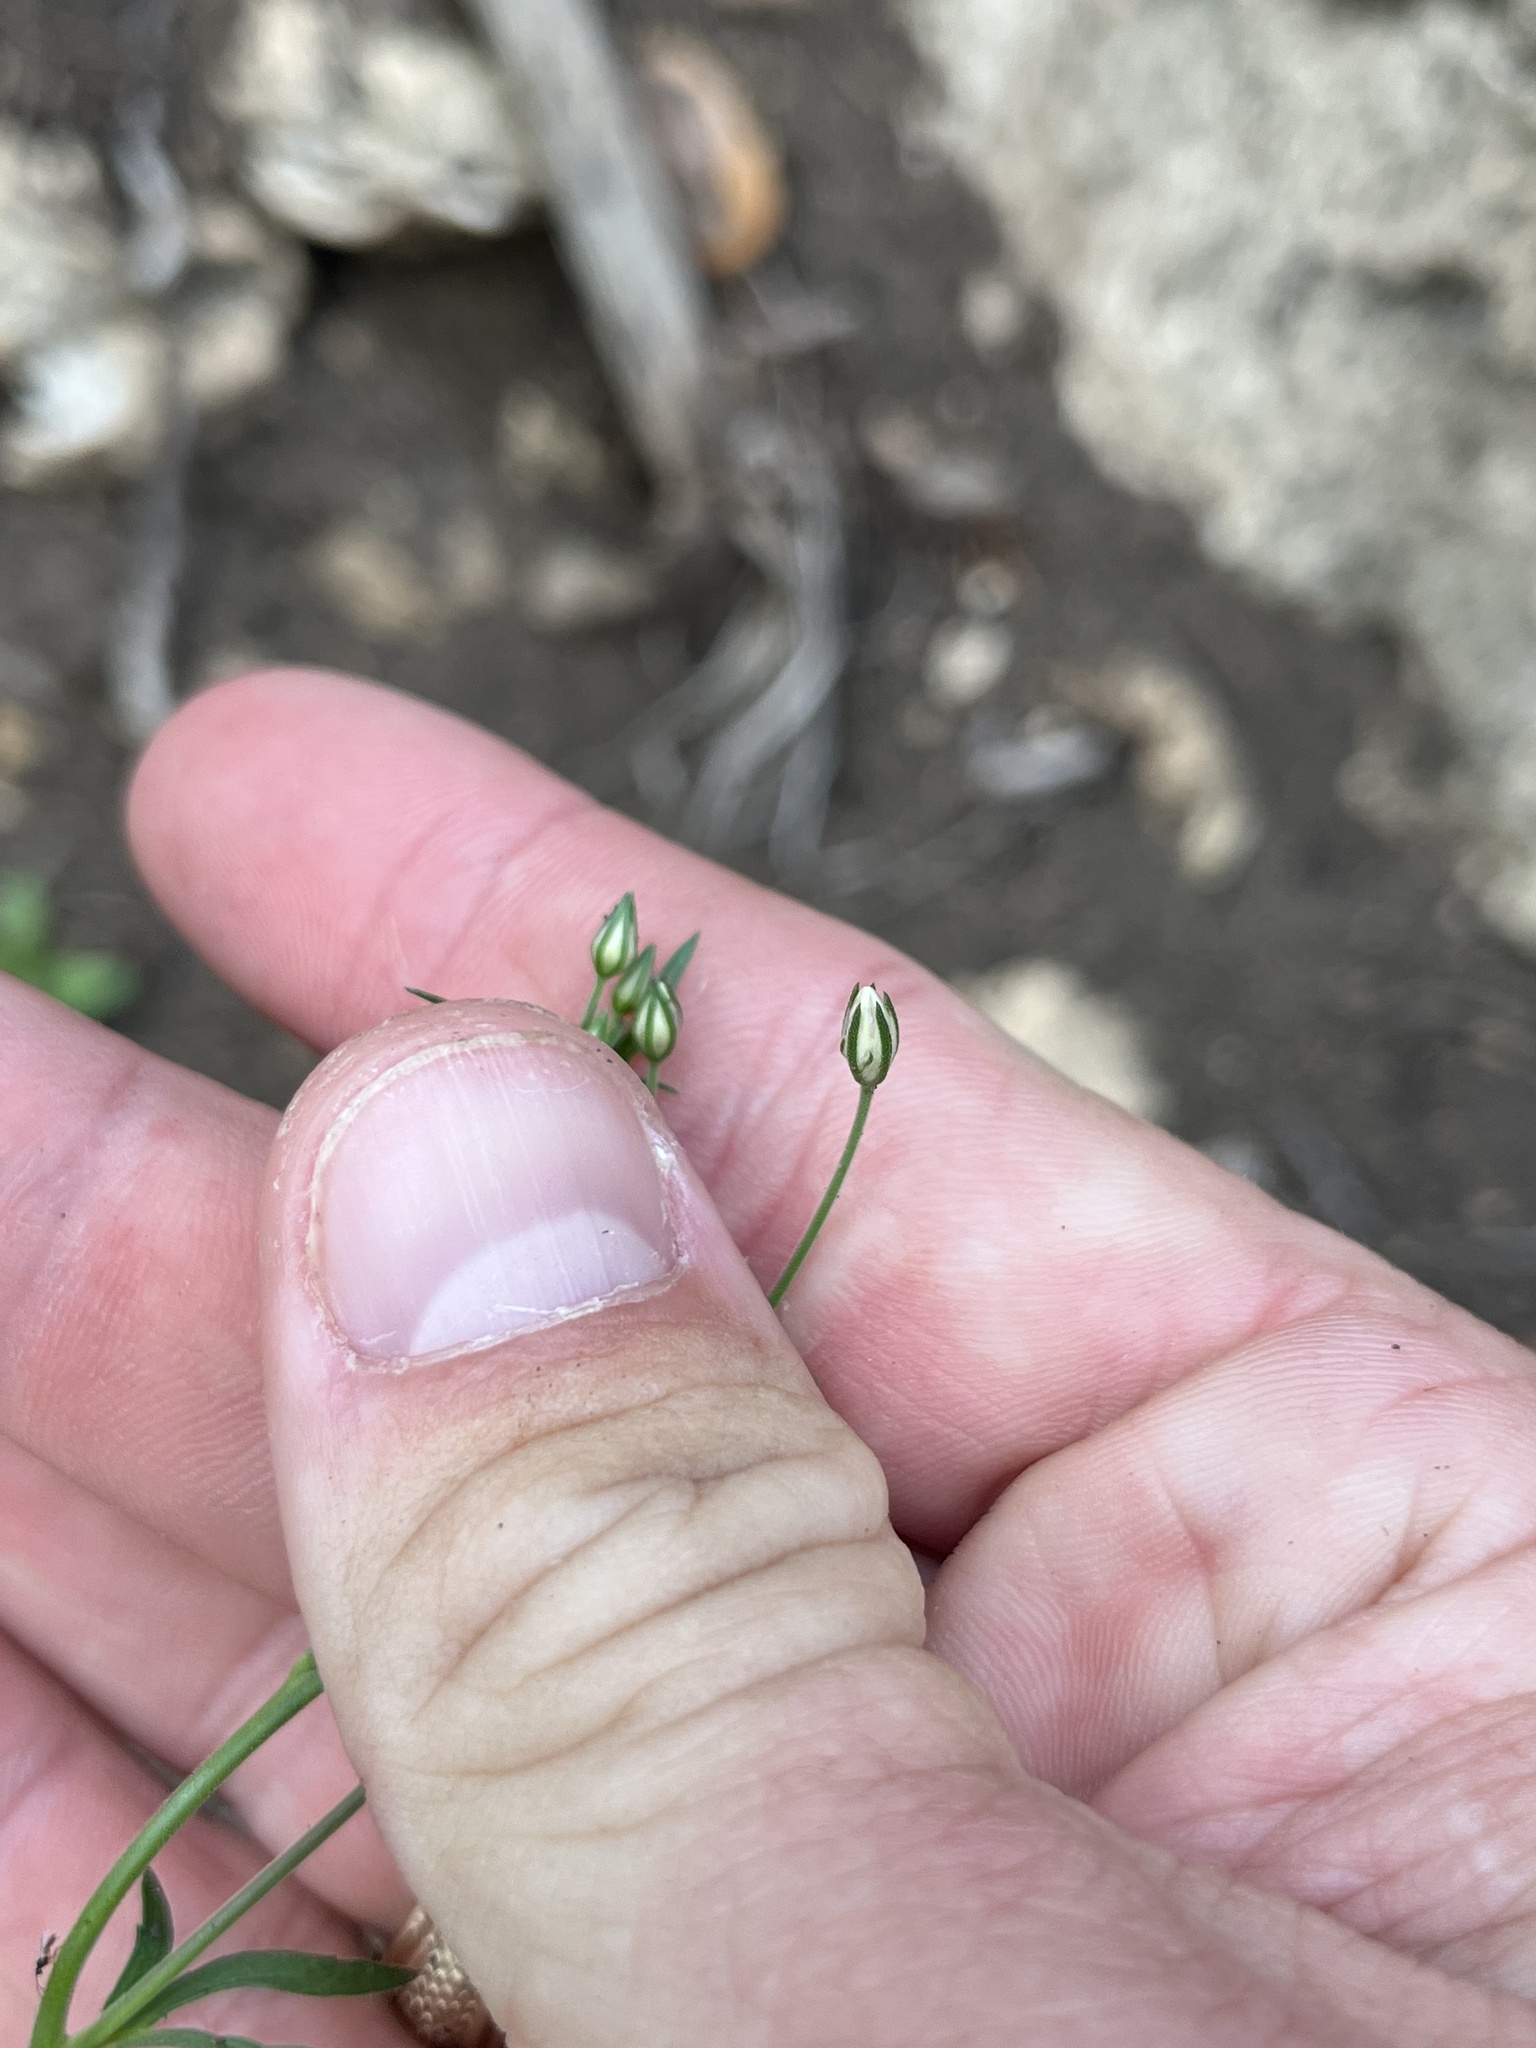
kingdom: Plantae
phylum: Tracheophyta
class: Magnoliopsida
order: Ericales
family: Polemoniaceae
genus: Giliastrum
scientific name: Giliastrum incisum
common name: Splitleaf gilia
